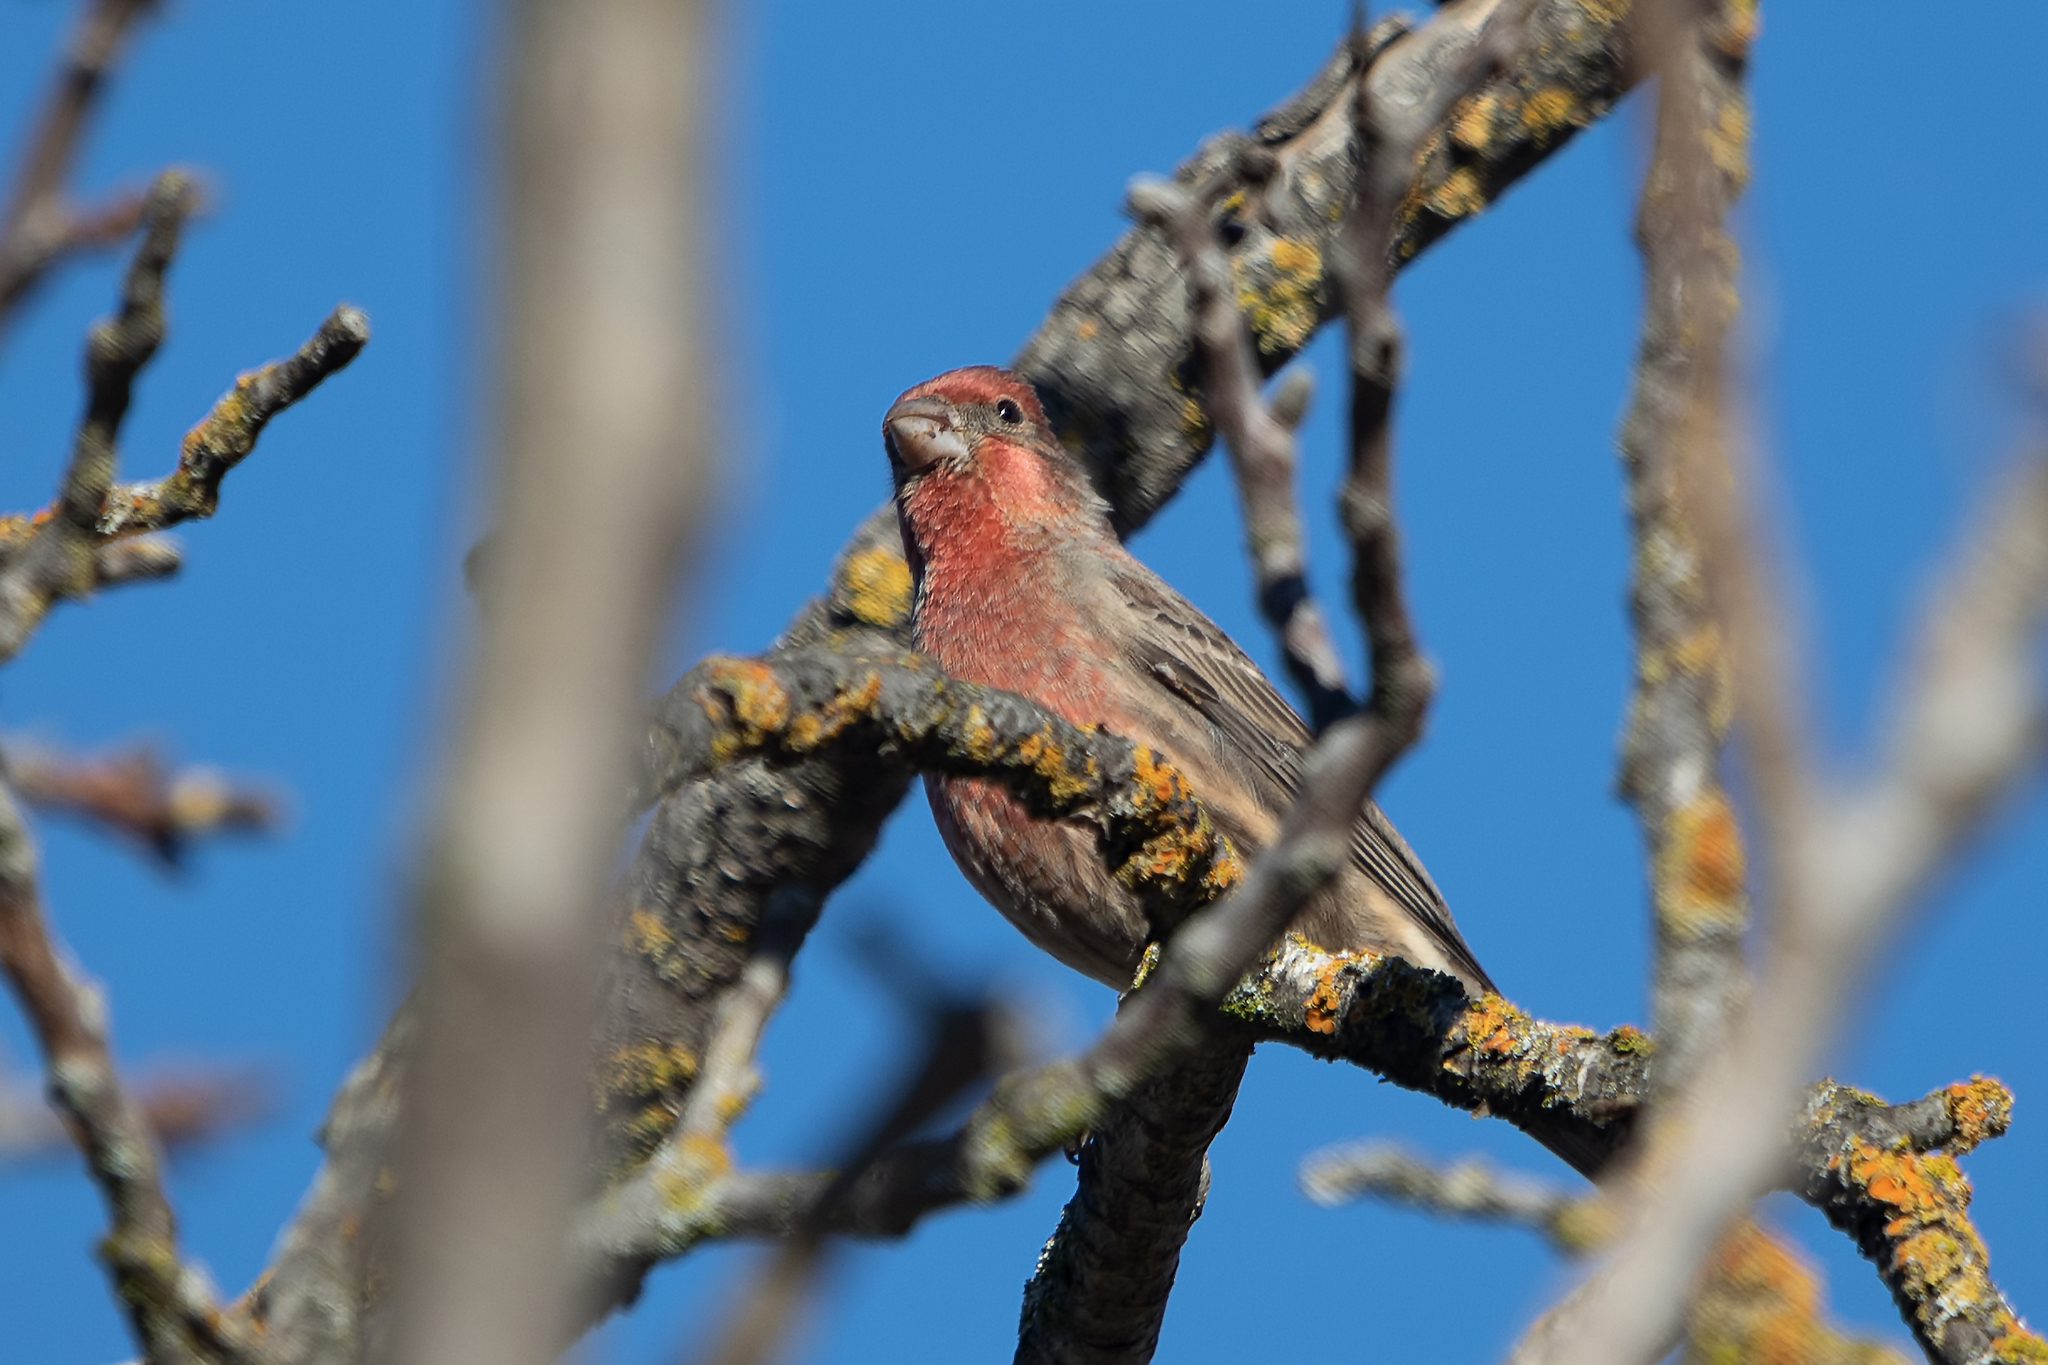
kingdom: Animalia
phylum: Chordata
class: Aves
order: Passeriformes
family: Fringillidae
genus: Haemorhous
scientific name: Haemorhous mexicanus
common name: House finch
